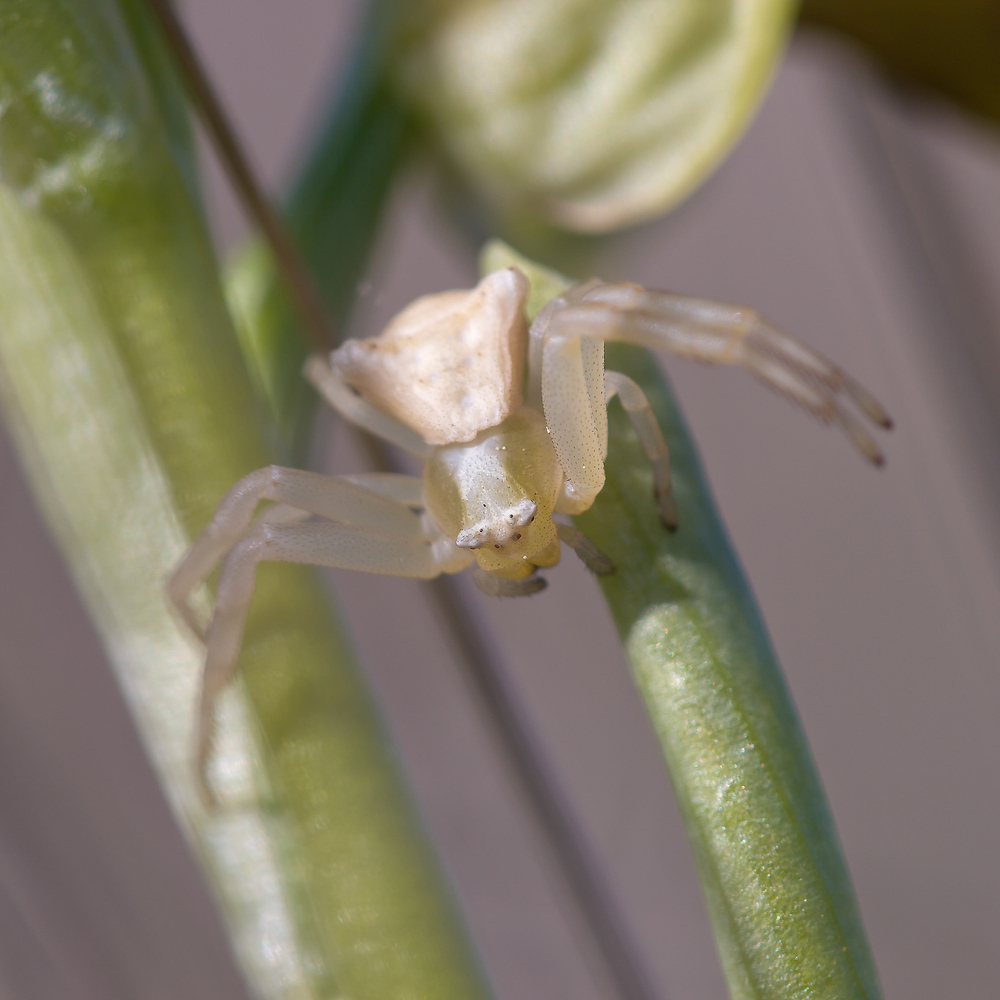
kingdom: Animalia
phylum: Arthropoda
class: Arachnida
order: Araneae
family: Thomisidae
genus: Thomisus
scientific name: Thomisus onustus
